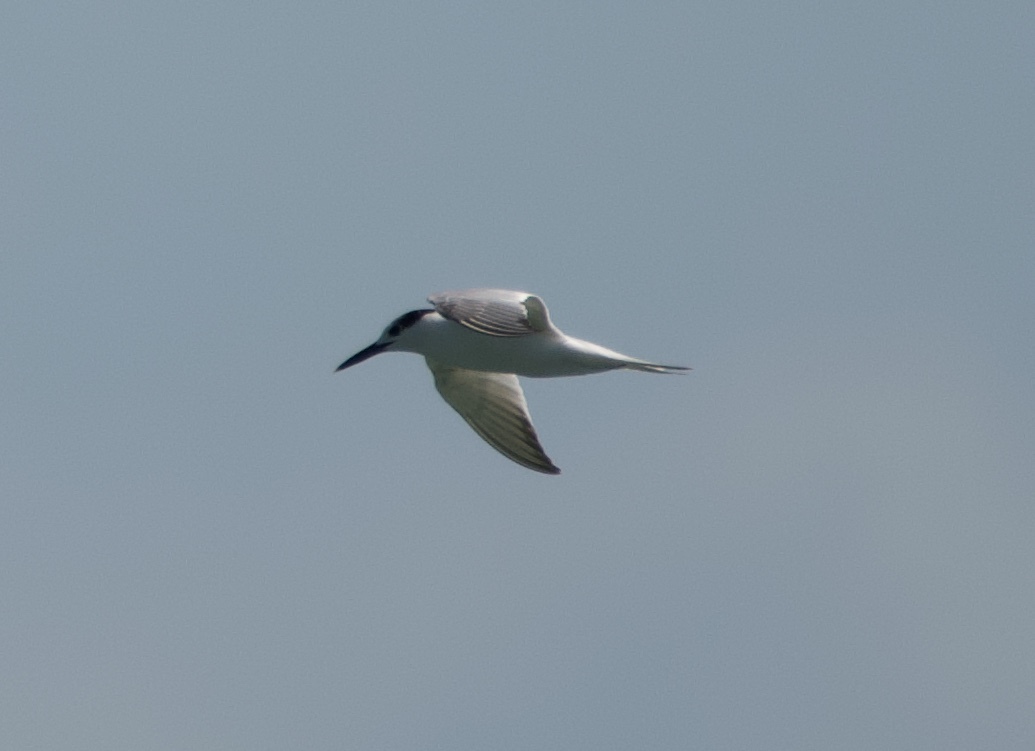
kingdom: Animalia
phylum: Chordata
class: Aves
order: Charadriiformes
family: Laridae
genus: Thalasseus
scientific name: Thalasseus sandvicensis
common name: Sandwich tern
